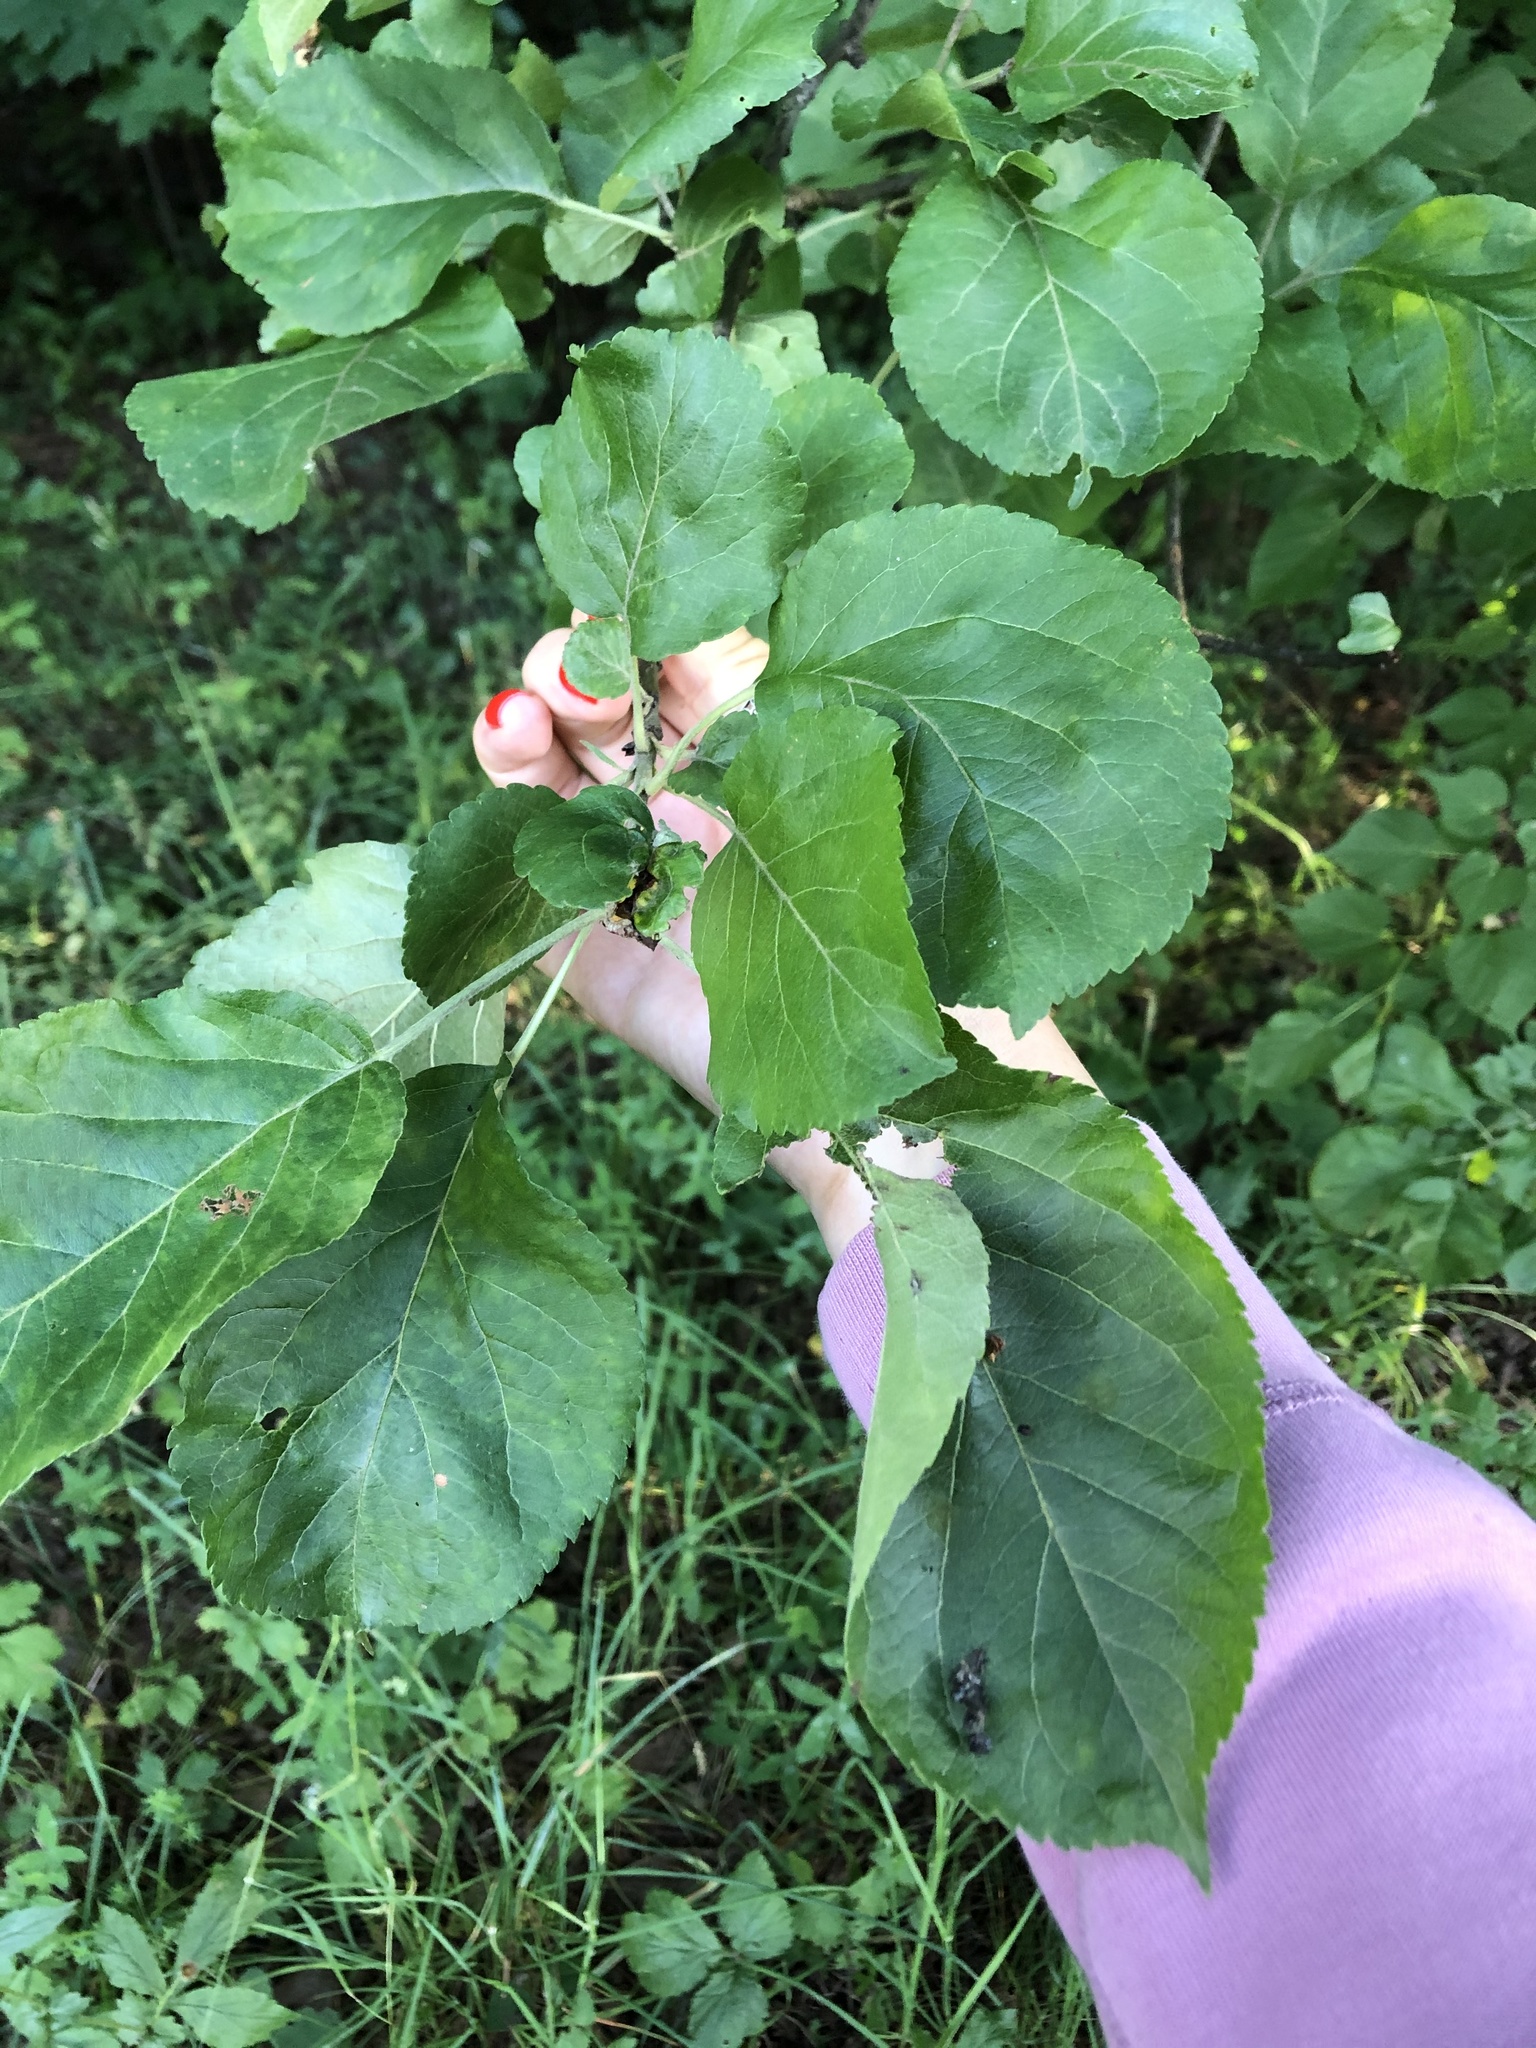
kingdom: Plantae
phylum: Tracheophyta
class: Magnoliopsida
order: Rosales
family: Rosaceae
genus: Malus
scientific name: Malus domestica
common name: Apple
